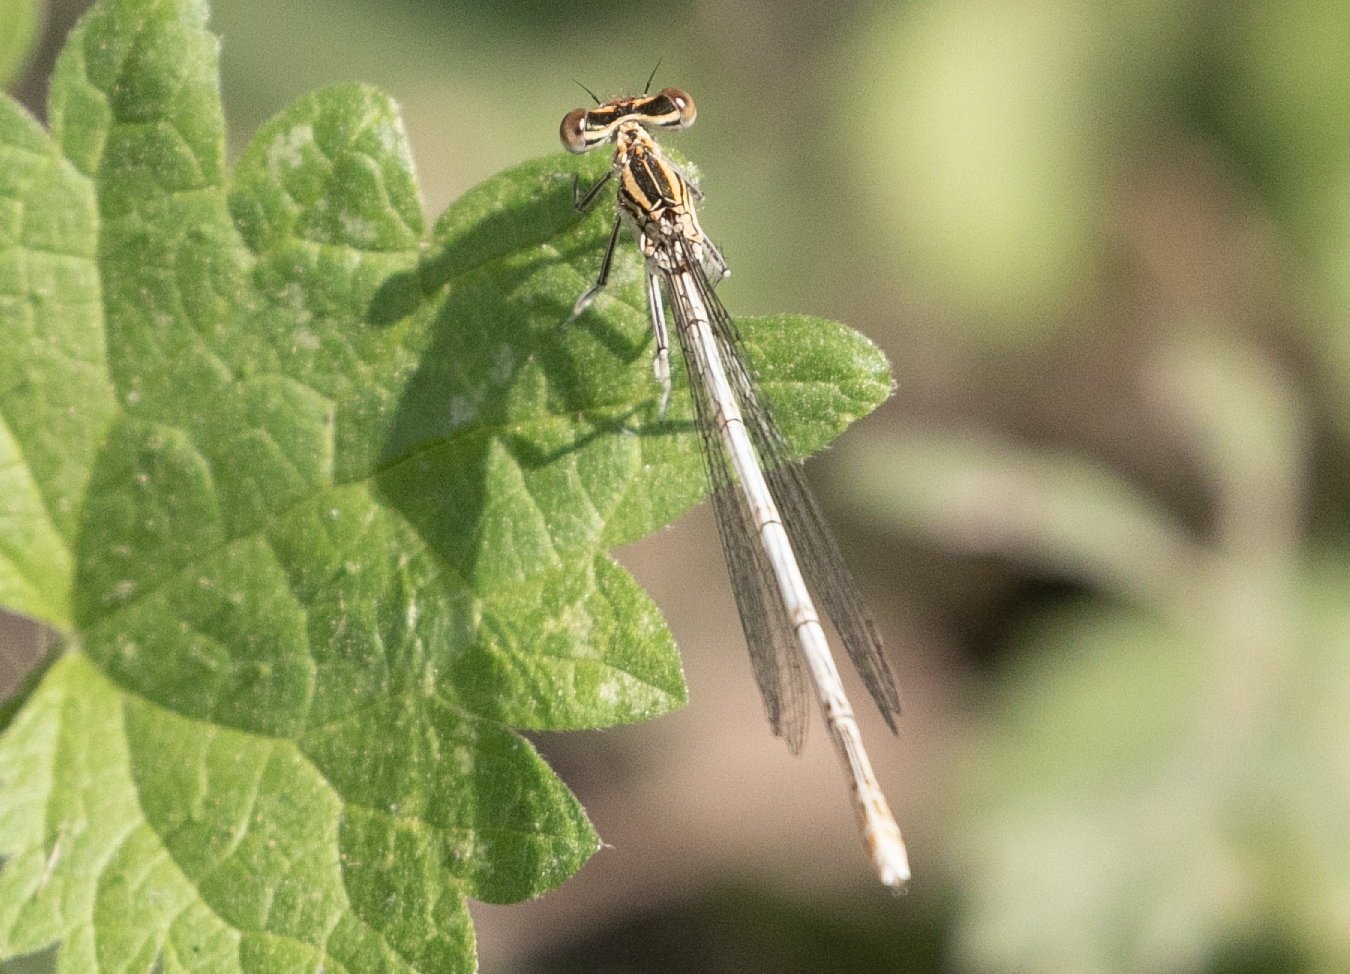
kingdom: Animalia
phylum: Arthropoda
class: Insecta
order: Odonata
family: Platycnemididae
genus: Platycnemis
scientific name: Platycnemis pennipes
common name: White-legged damselfly
